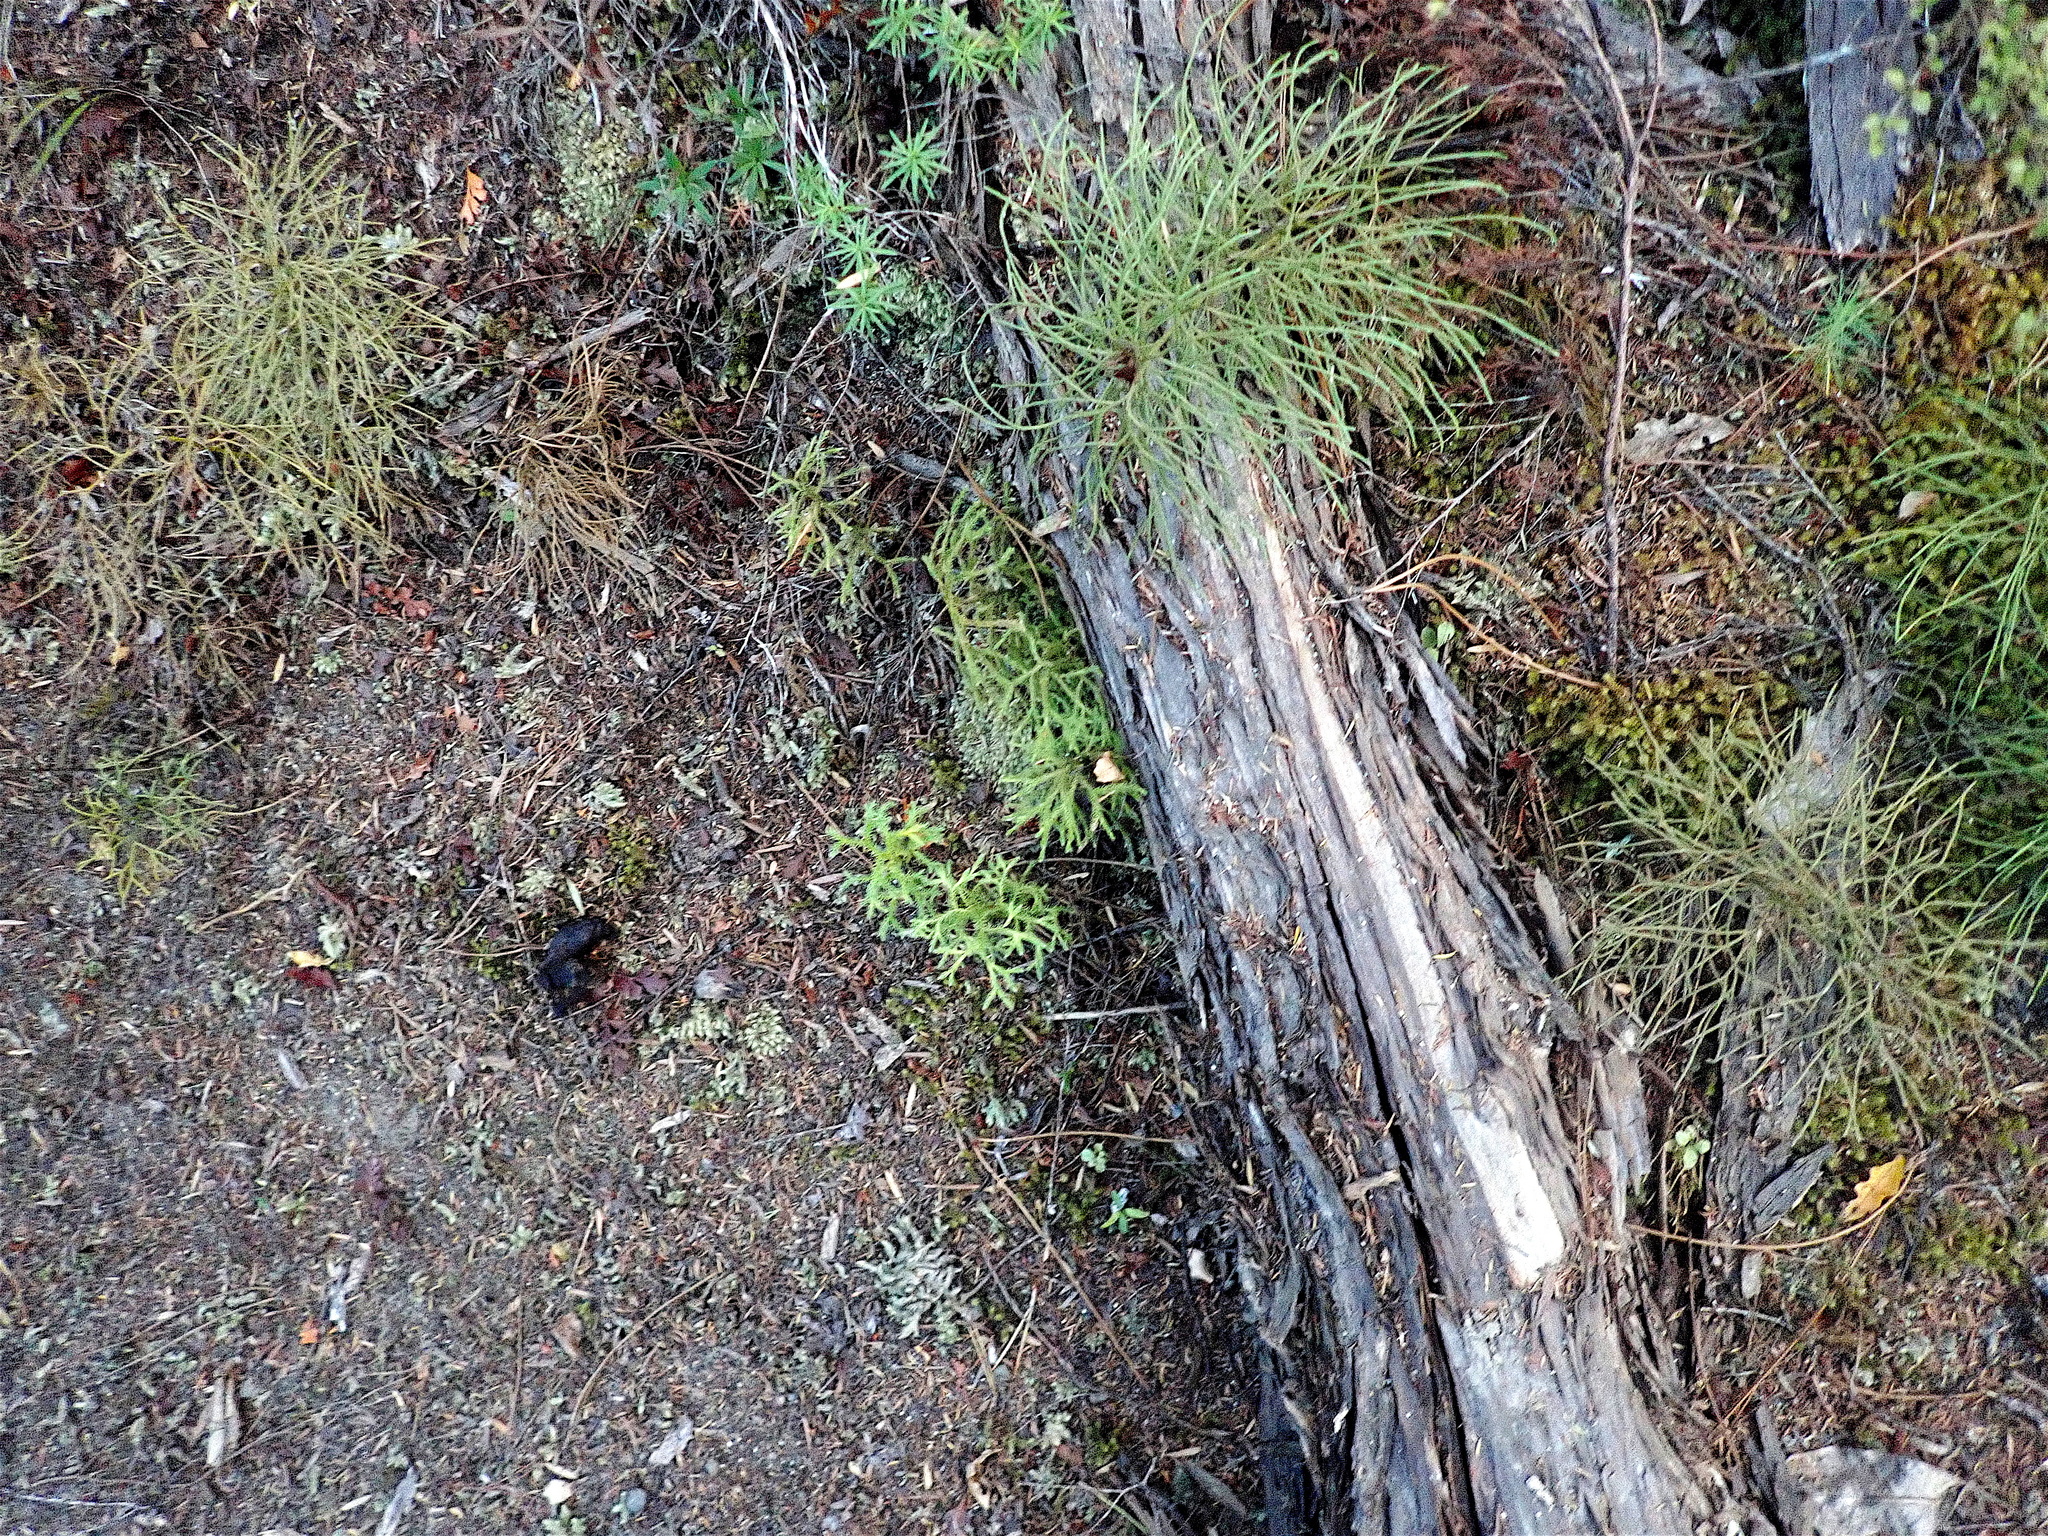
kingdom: Plantae
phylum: Tracheophyta
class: Lycopodiopsida
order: Lycopodiales
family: Lycopodiaceae
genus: Pseudolycopodium
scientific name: Pseudolycopodium densum
